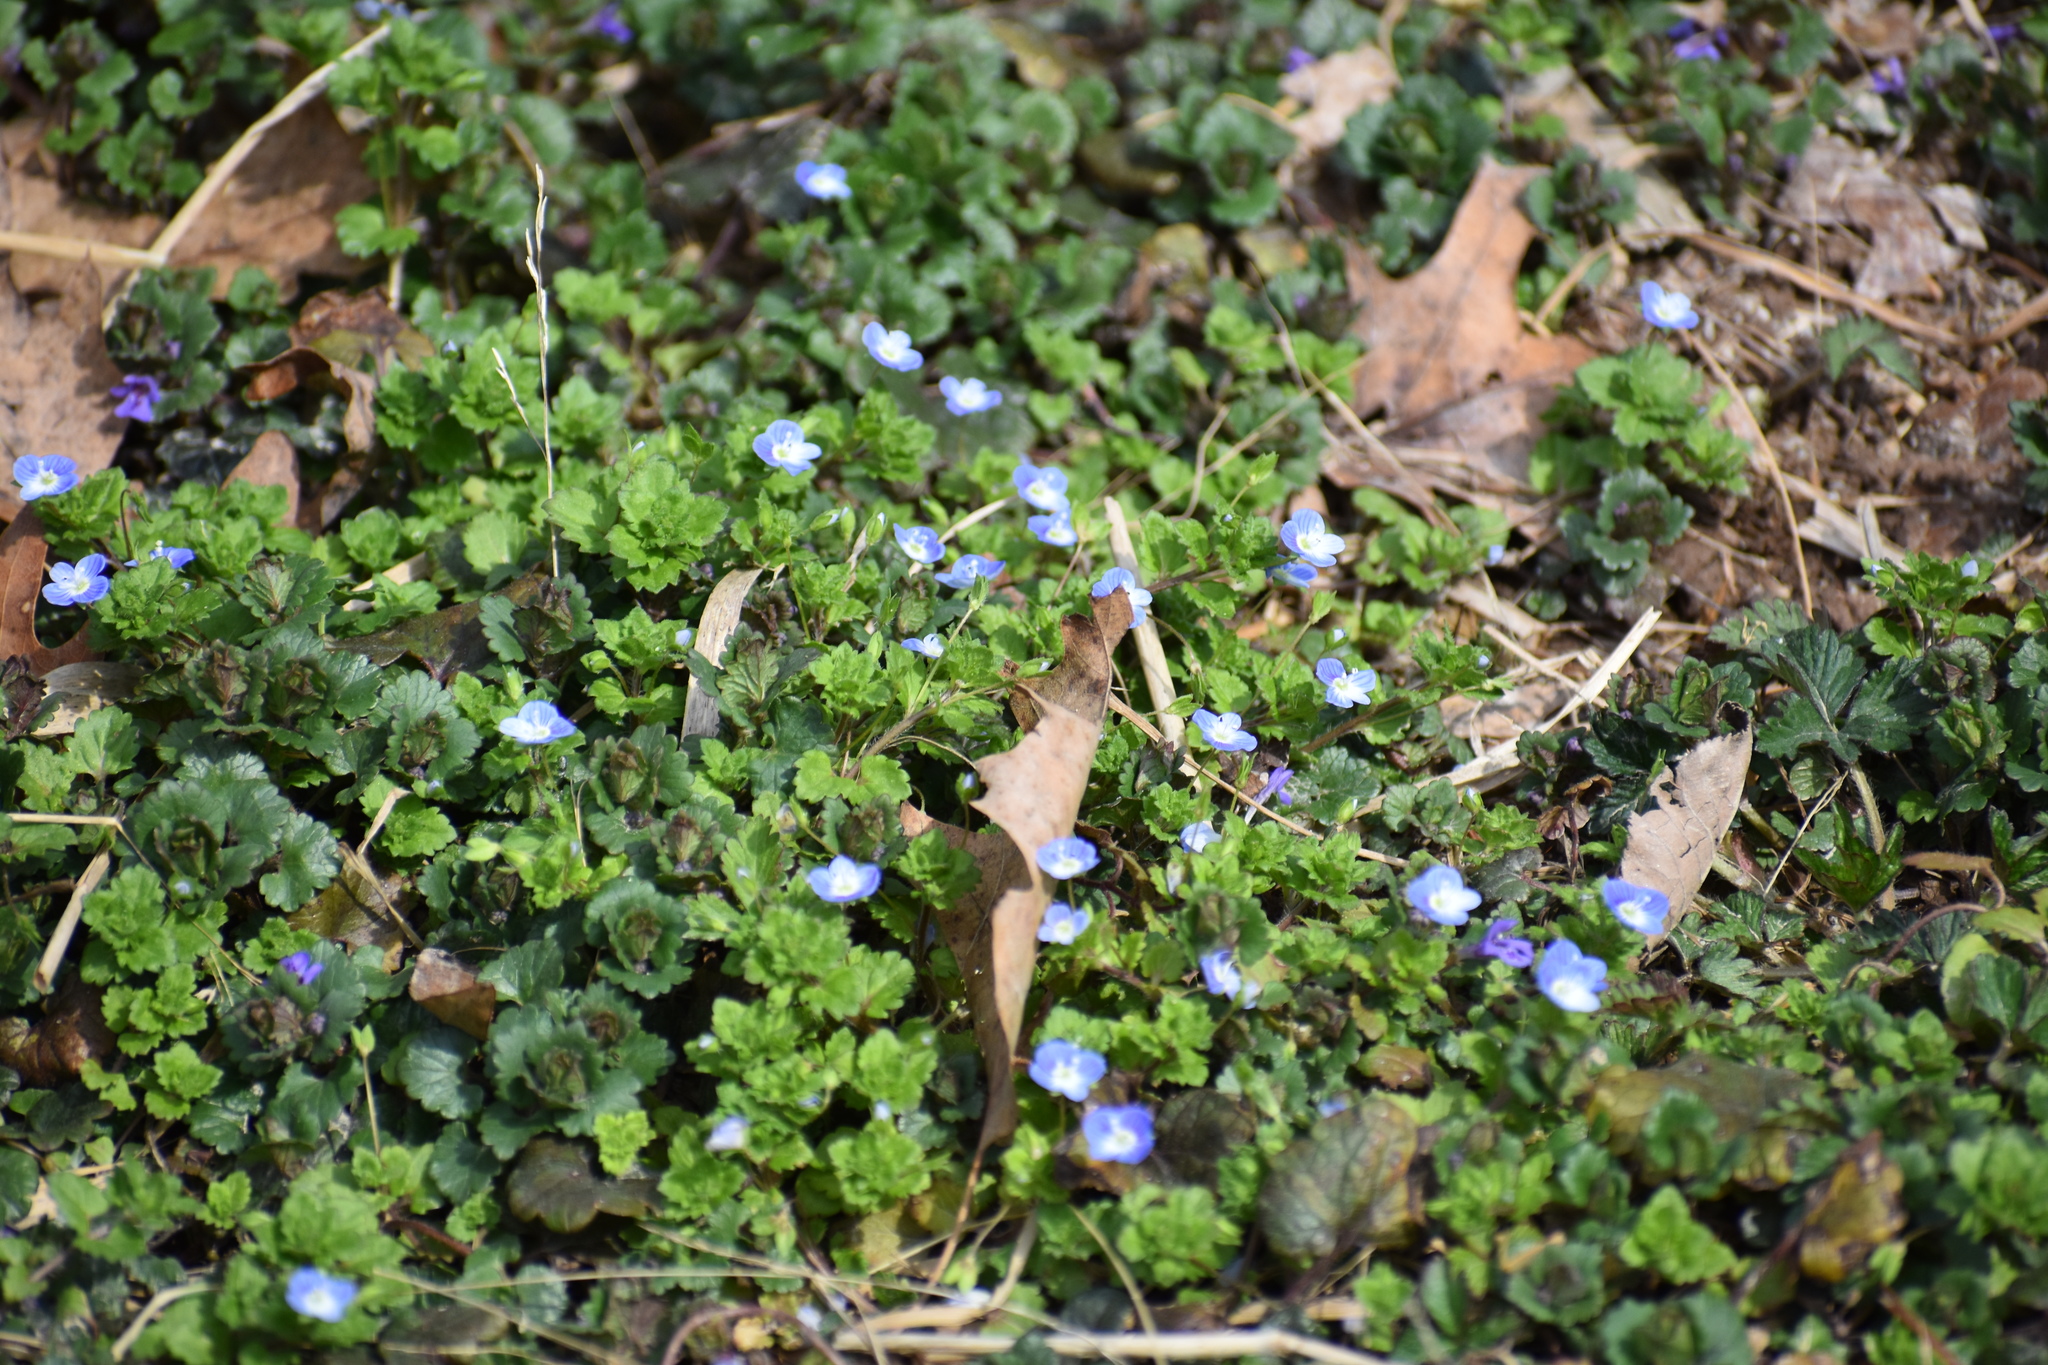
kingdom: Plantae
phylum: Tracheophyta
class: Magnoliopsida
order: Lamiales
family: Plantaginaceae
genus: Veronica
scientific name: Veronica persica
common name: Common field-speedwell
